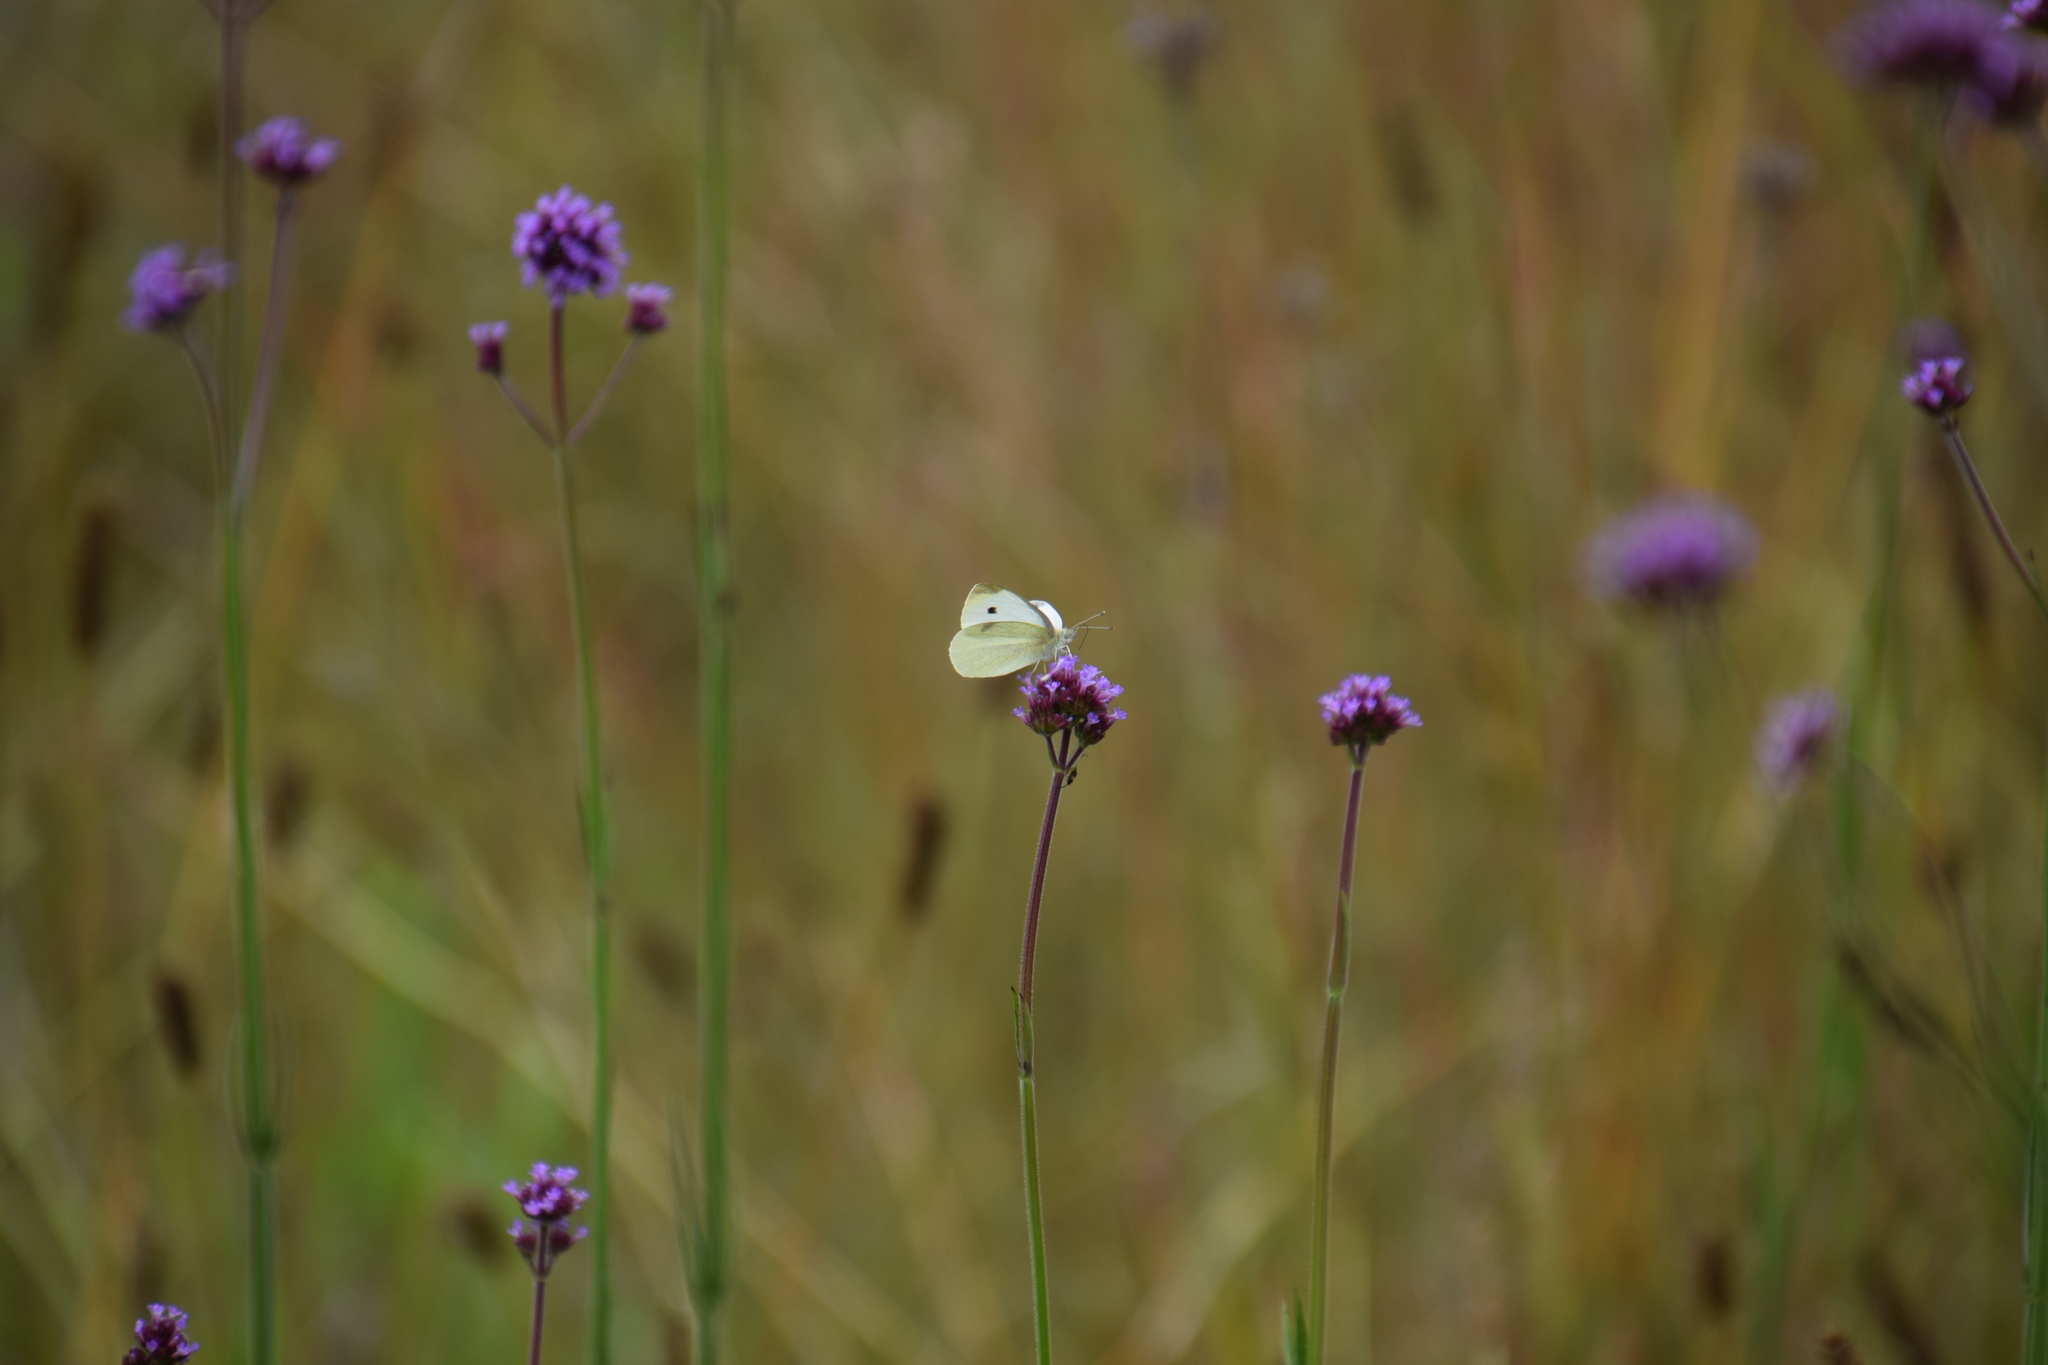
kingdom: Animalia
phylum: Arthropoda
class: Insecta
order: Lepidoptera
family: Pieridae
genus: Pieris
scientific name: Pieris rapae
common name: Small white
